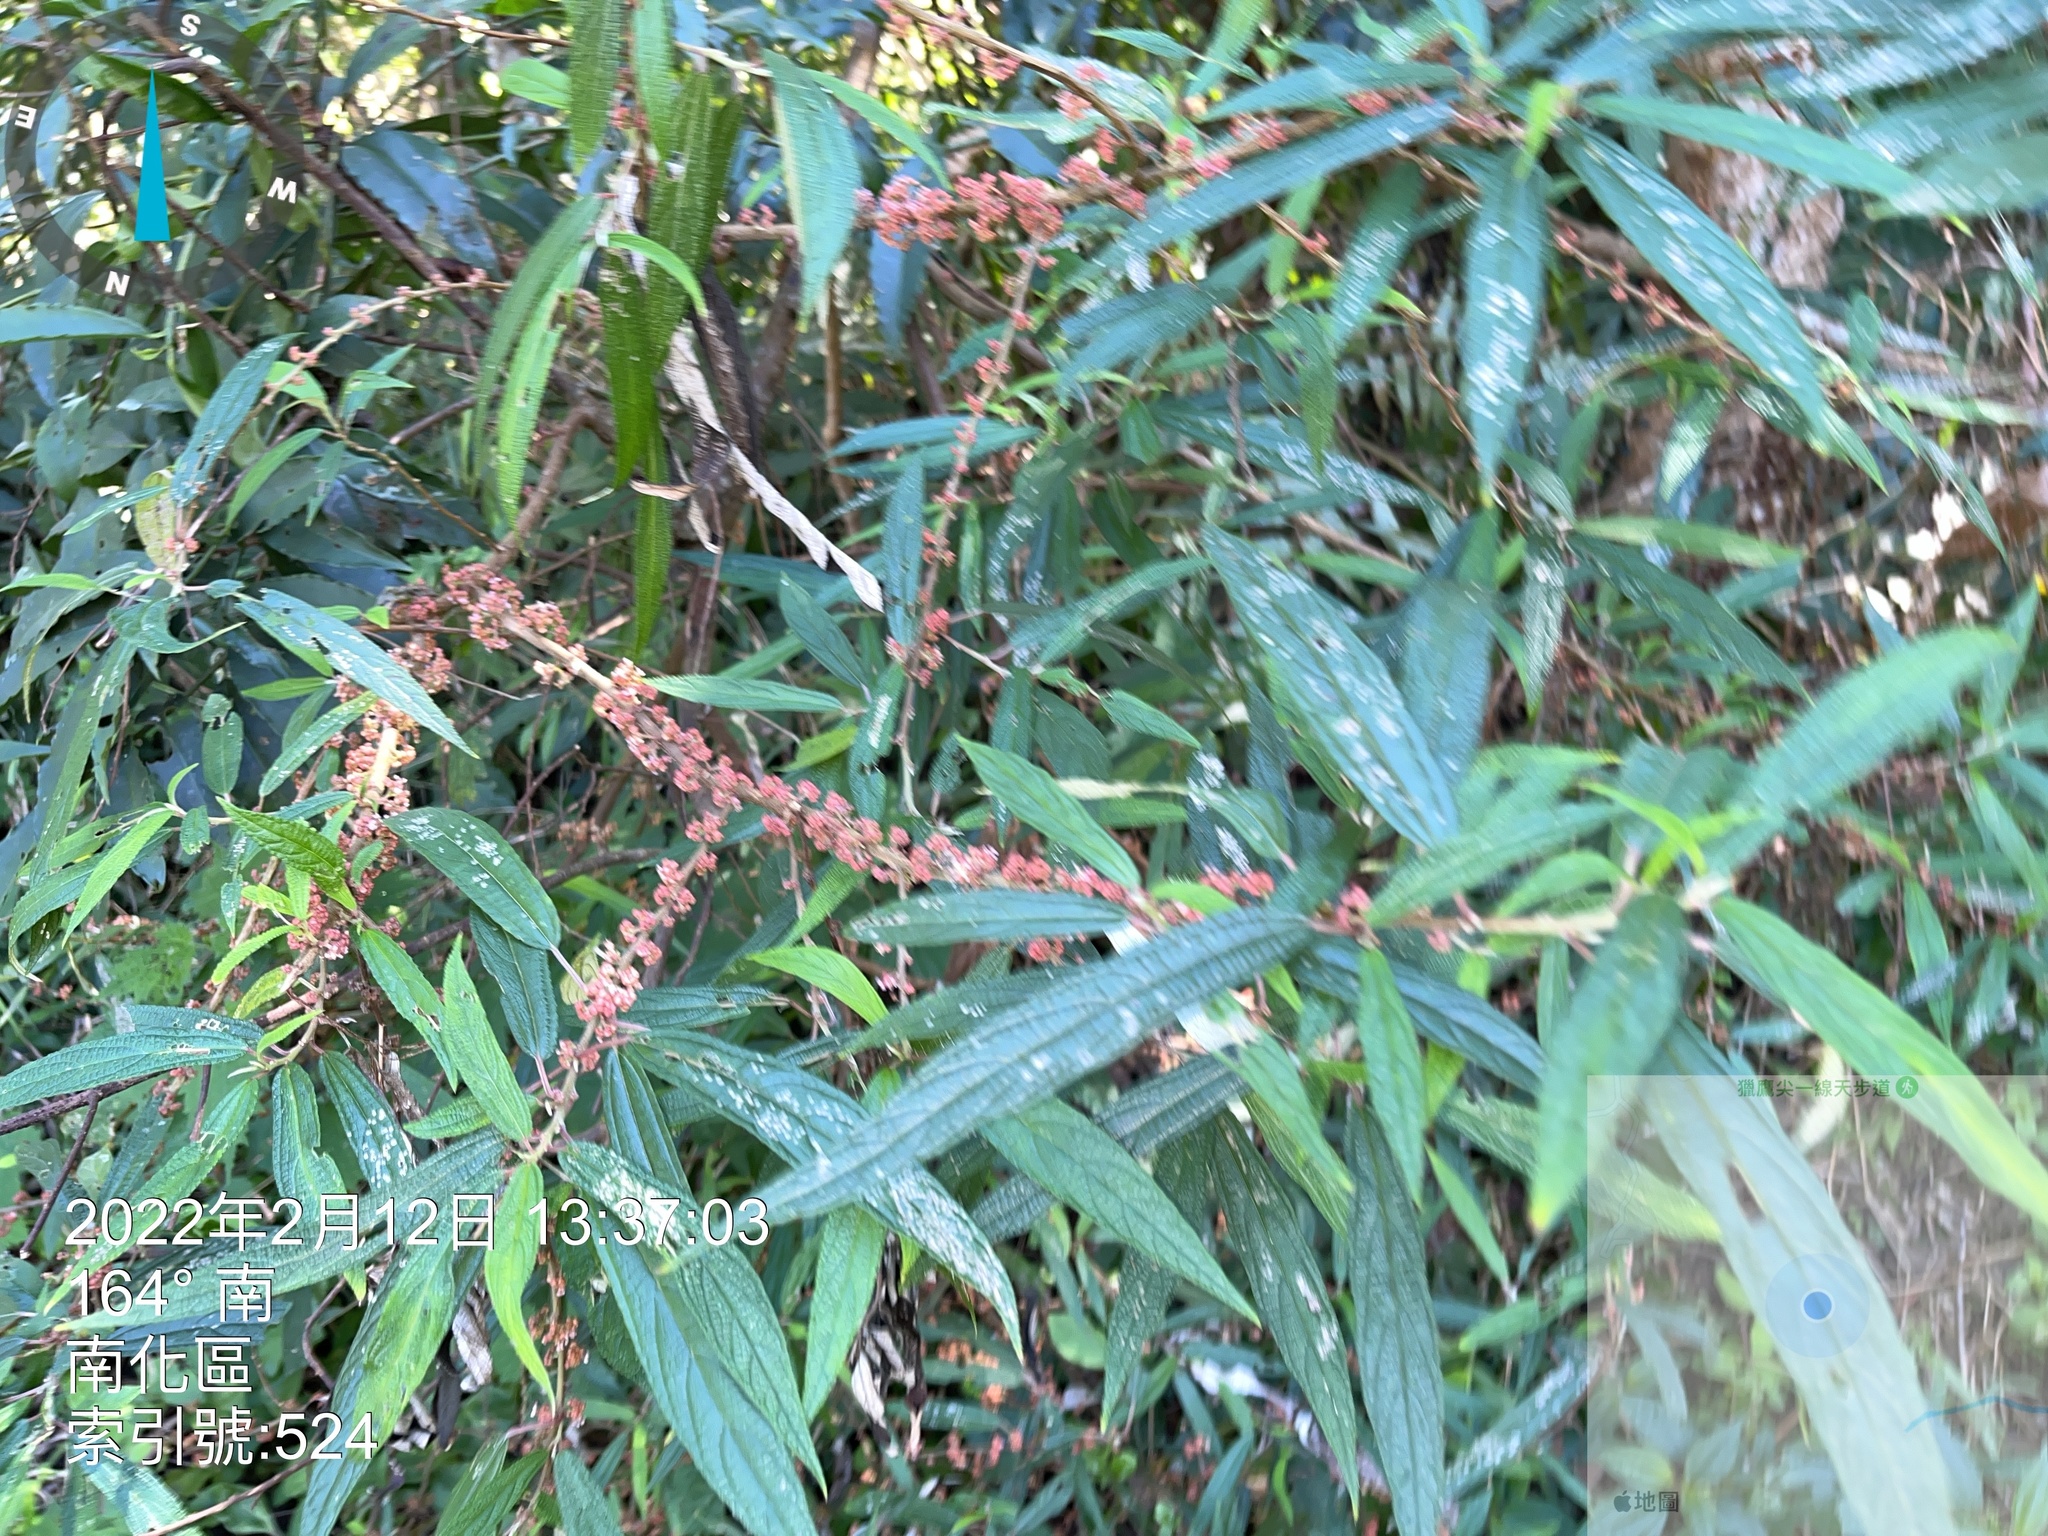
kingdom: Plantae
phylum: Tracheophyta
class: Magnoliopsida
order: Rosales
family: Urticaceae
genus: Debregeasia
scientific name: Debregeasia orientalis
